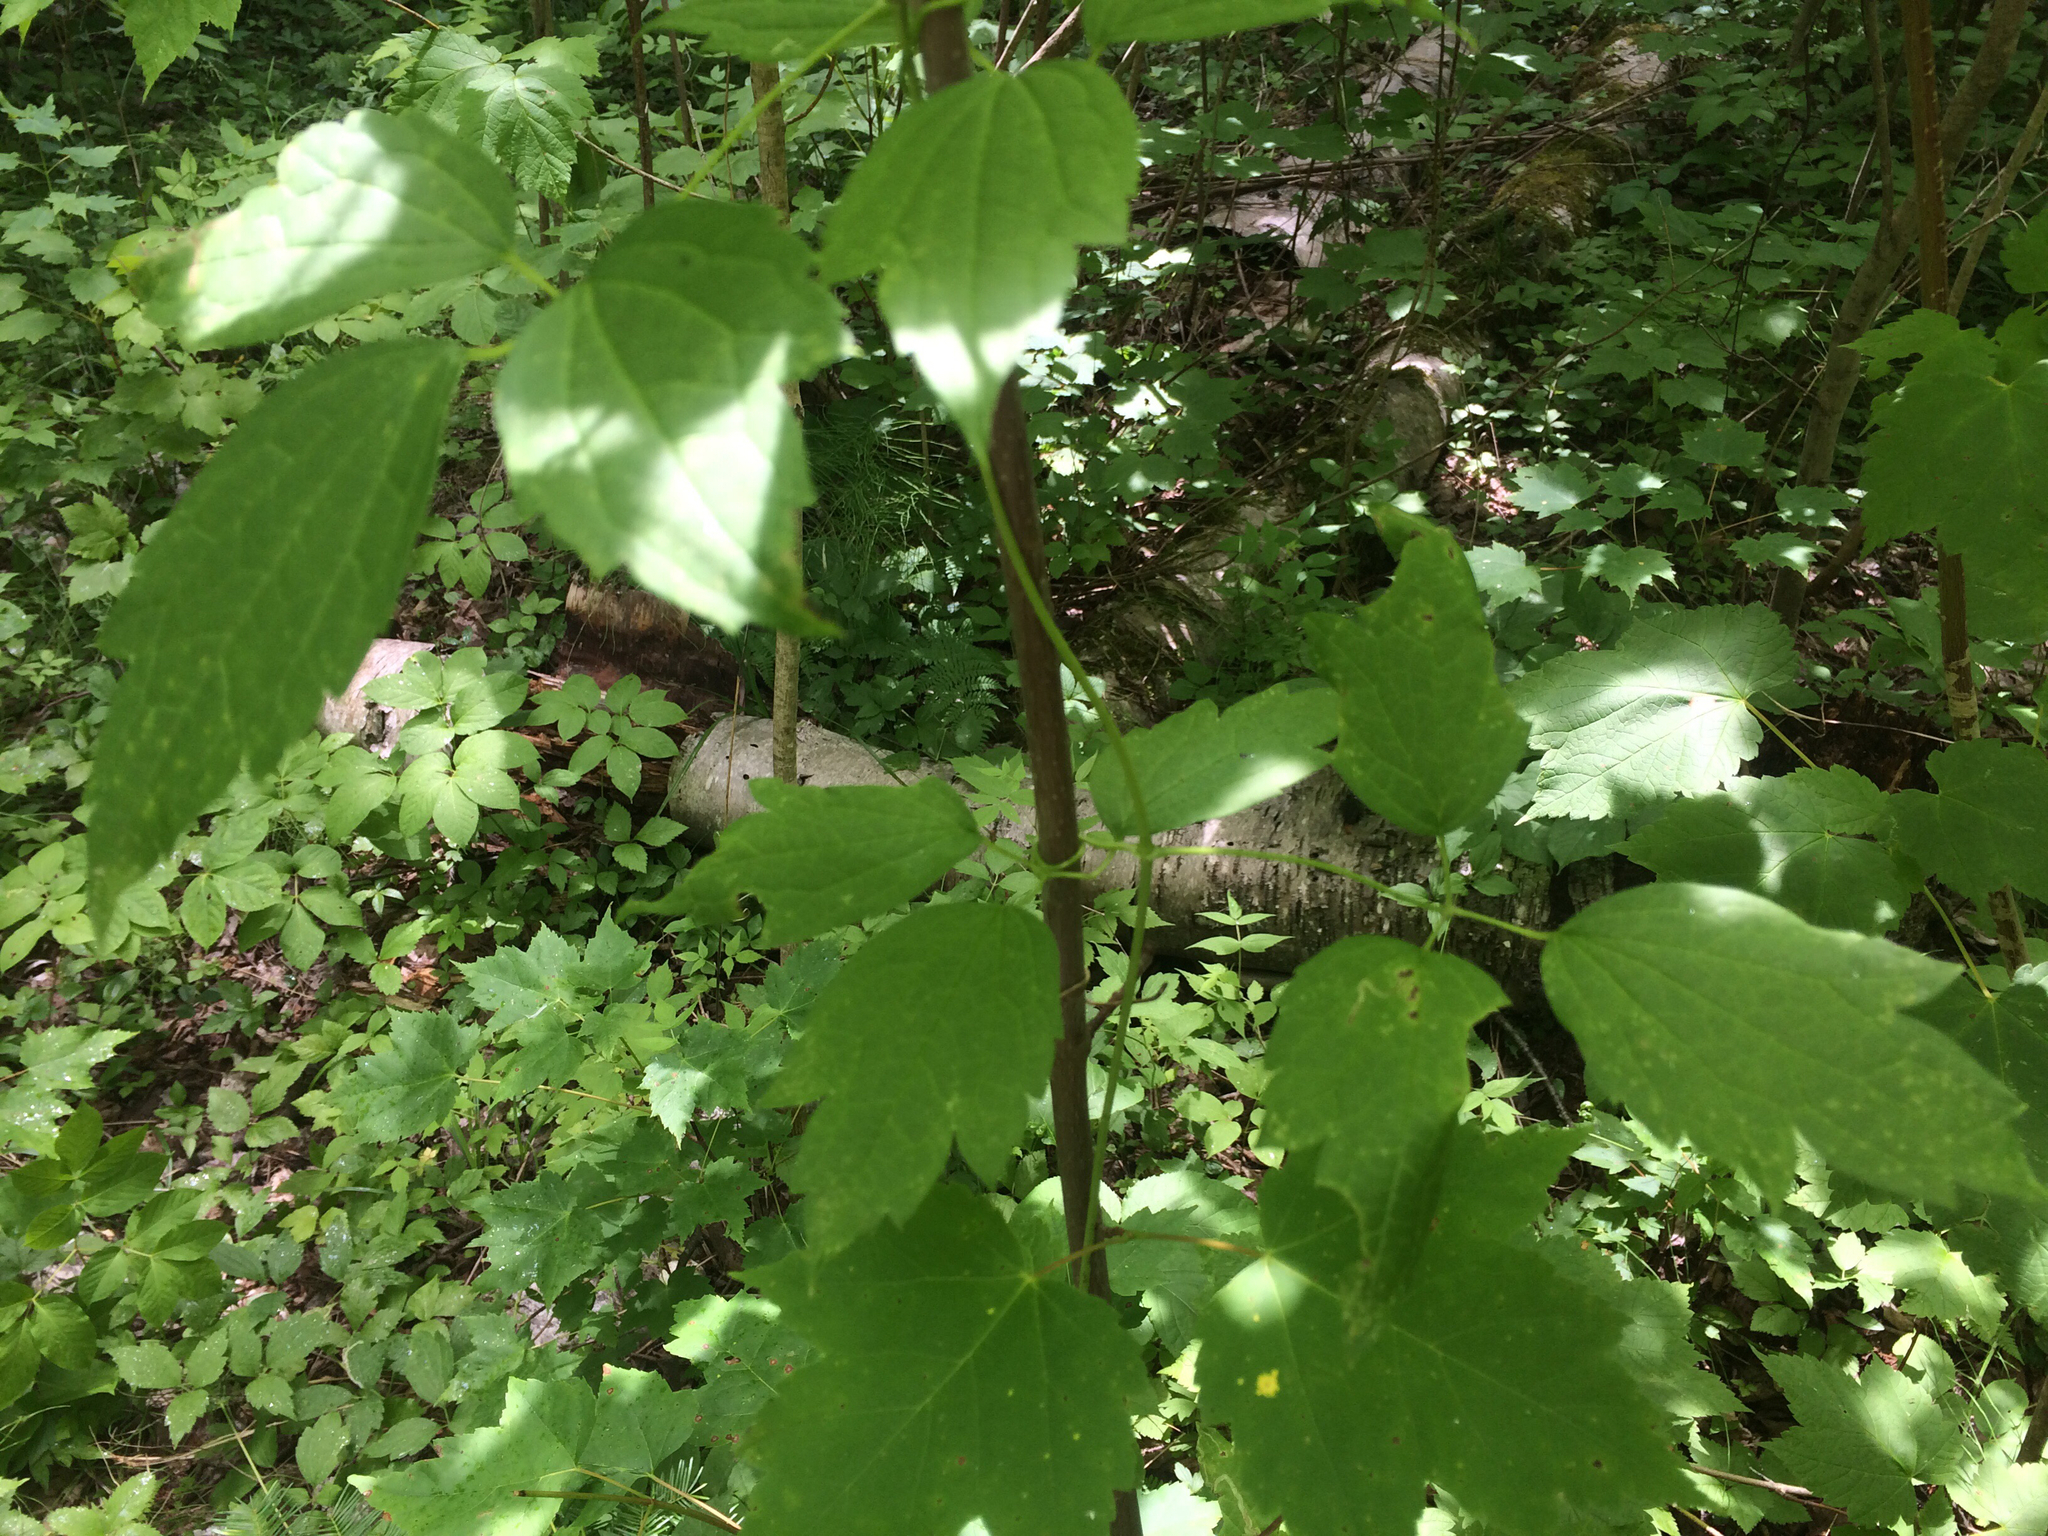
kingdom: Plantae
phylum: Tracheophyta
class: Magnoliopsida
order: Ranunculales
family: Ranunculaceae
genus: Clematis
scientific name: Clematis virginiana
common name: Virgin's-bower
